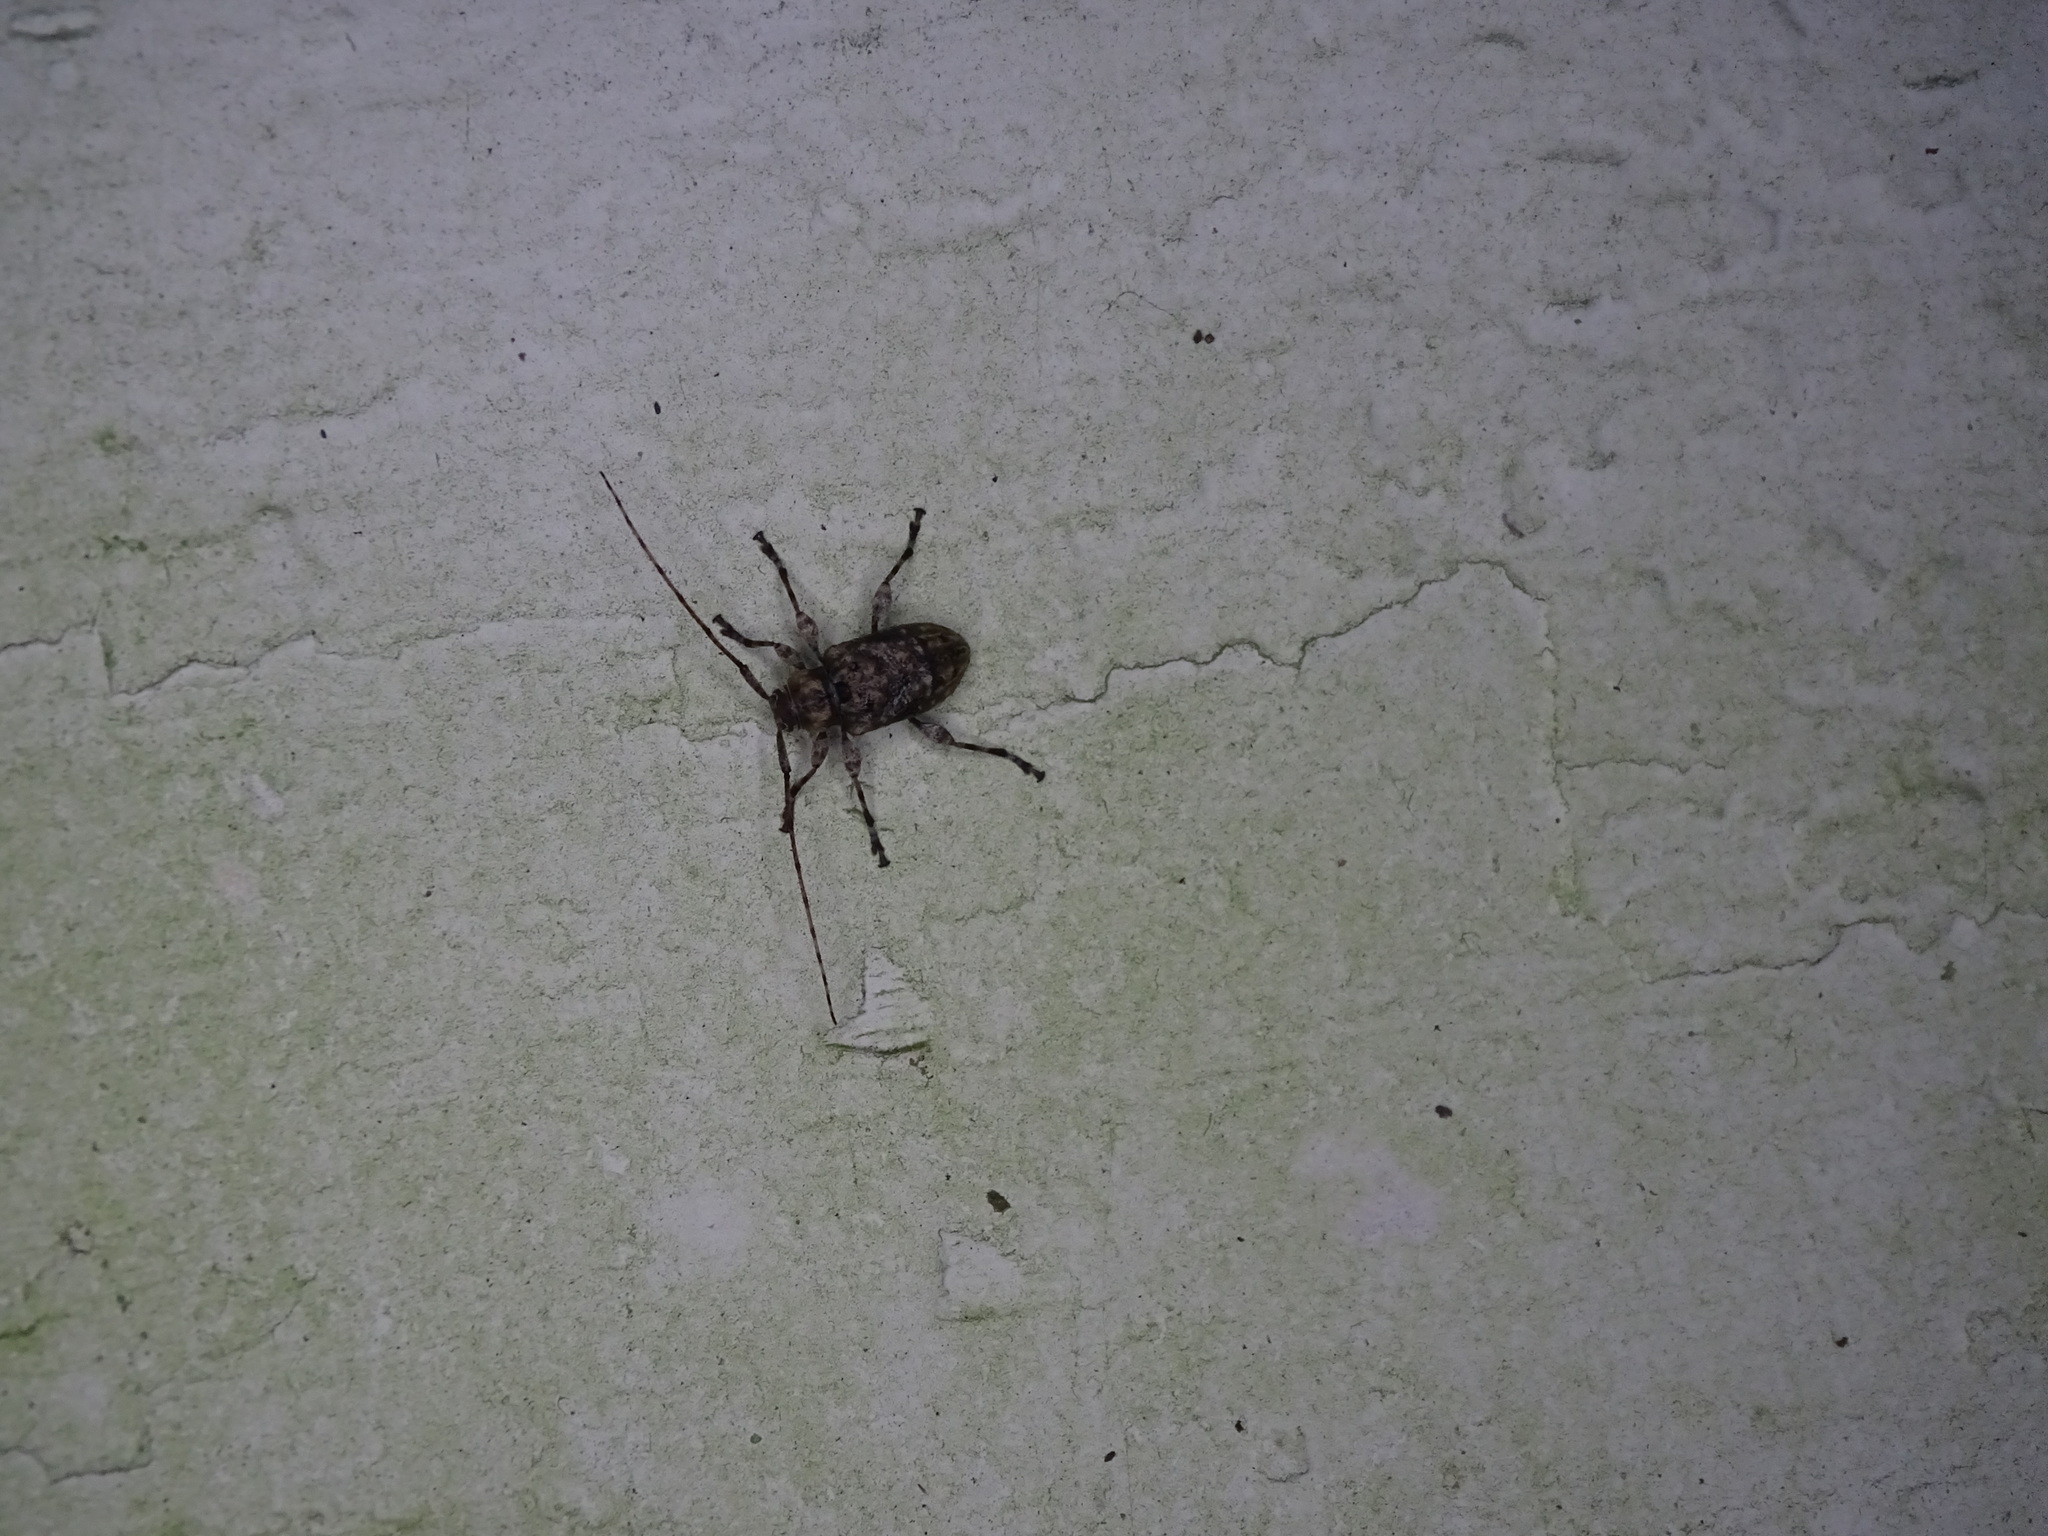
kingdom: Animalia
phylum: Arthropoda
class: Insecta
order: Coleoptera
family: Cerambycidae
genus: Leptostylopsis
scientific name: Leptostylopsis terraecolor
